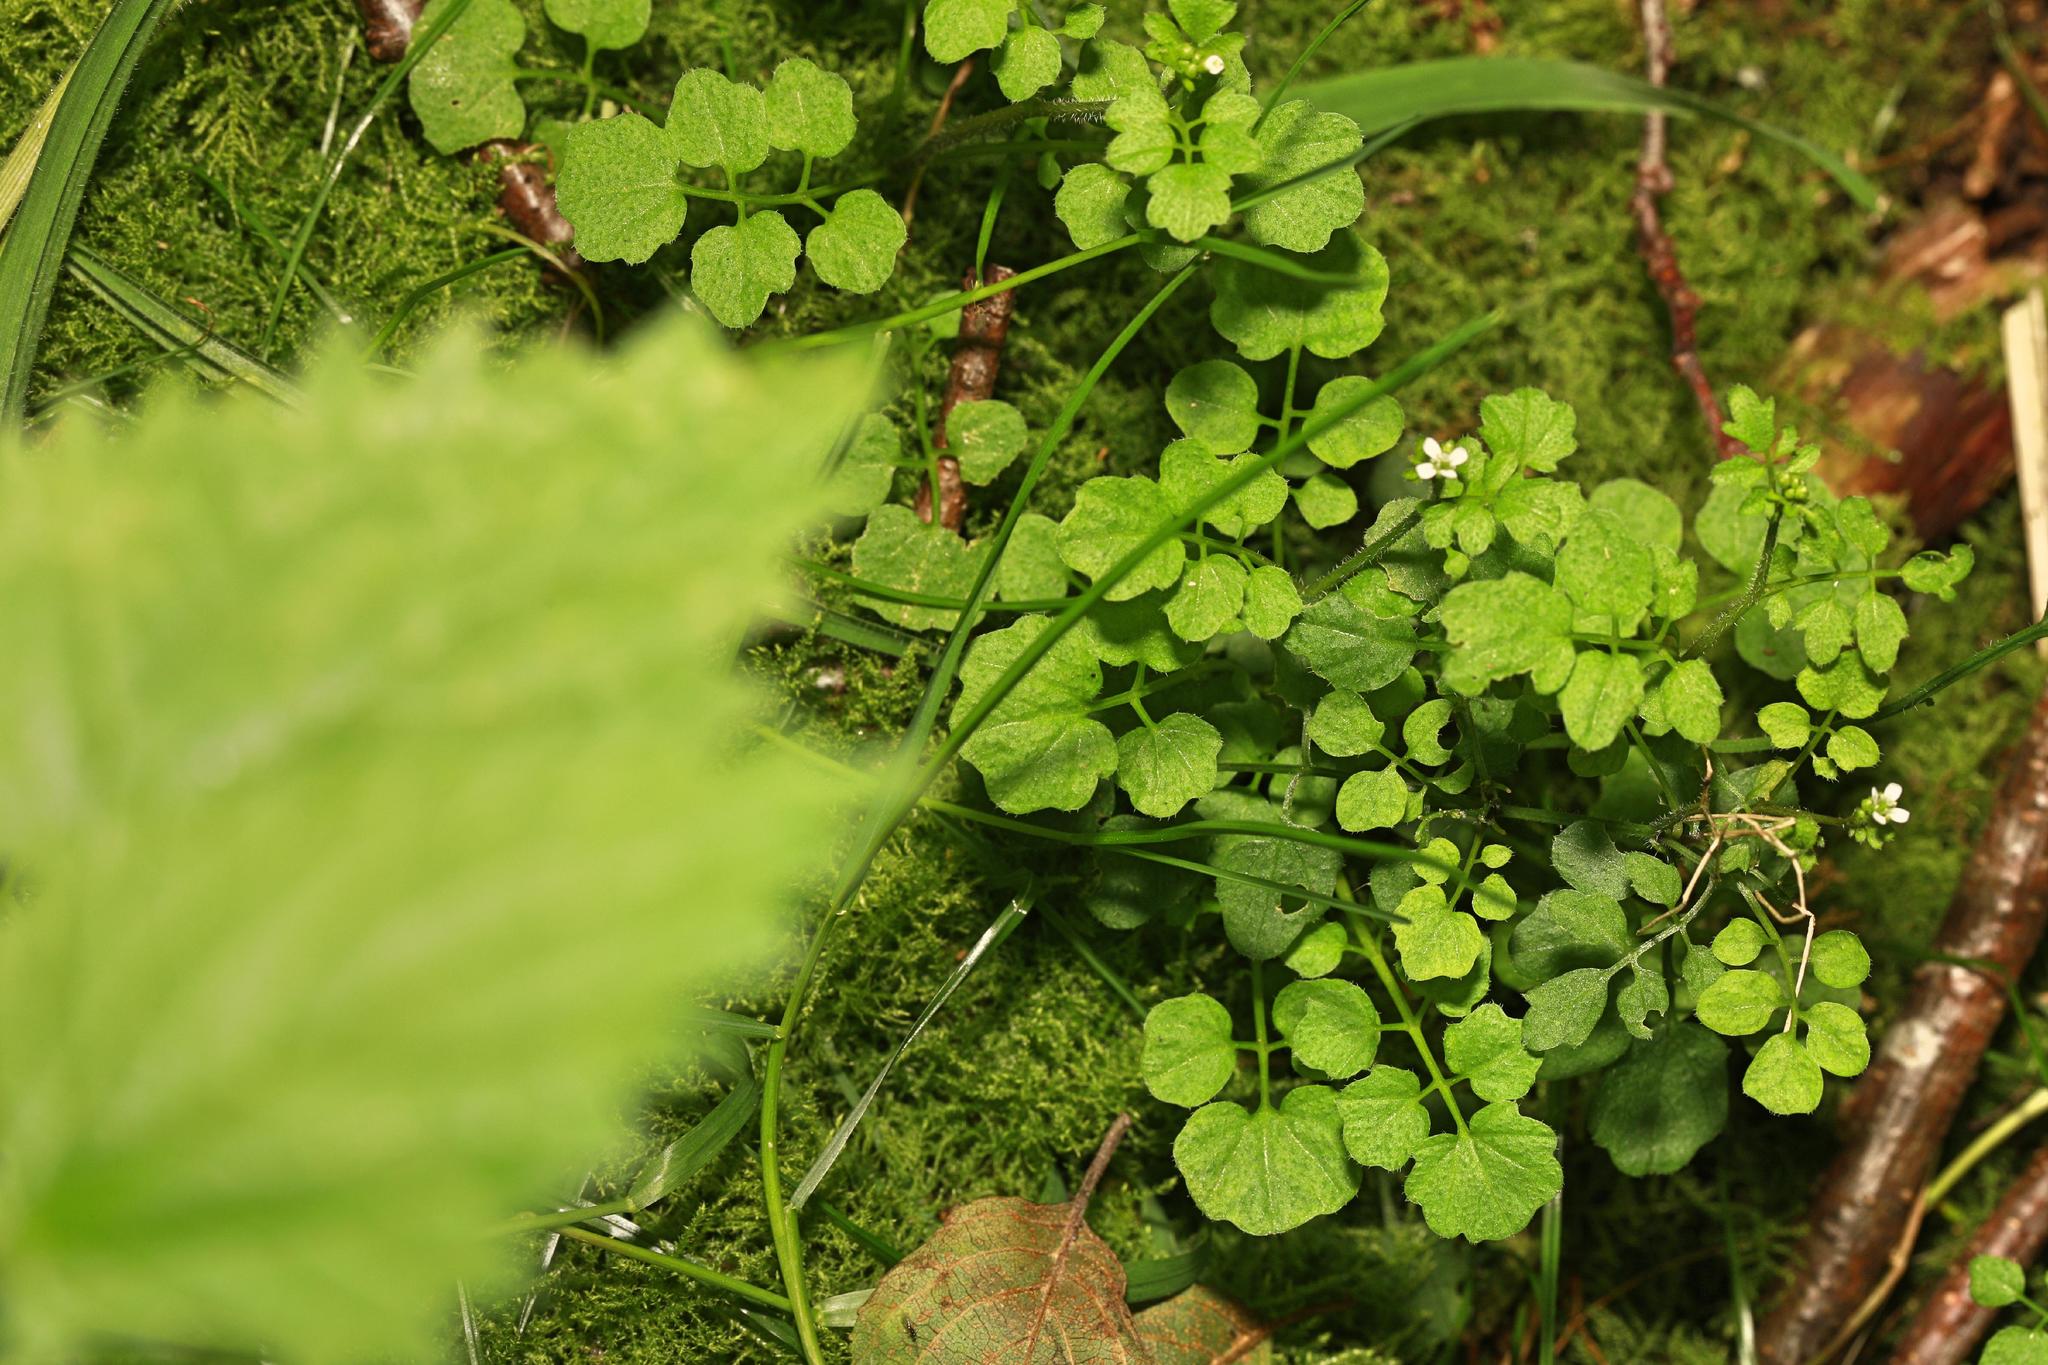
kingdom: Plantae
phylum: Tracheophyta
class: Magnoliopsida
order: Brassicales
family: Brassicaceae
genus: Cardamine
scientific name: Cardamine flexuosa
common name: Woodland bittercress
